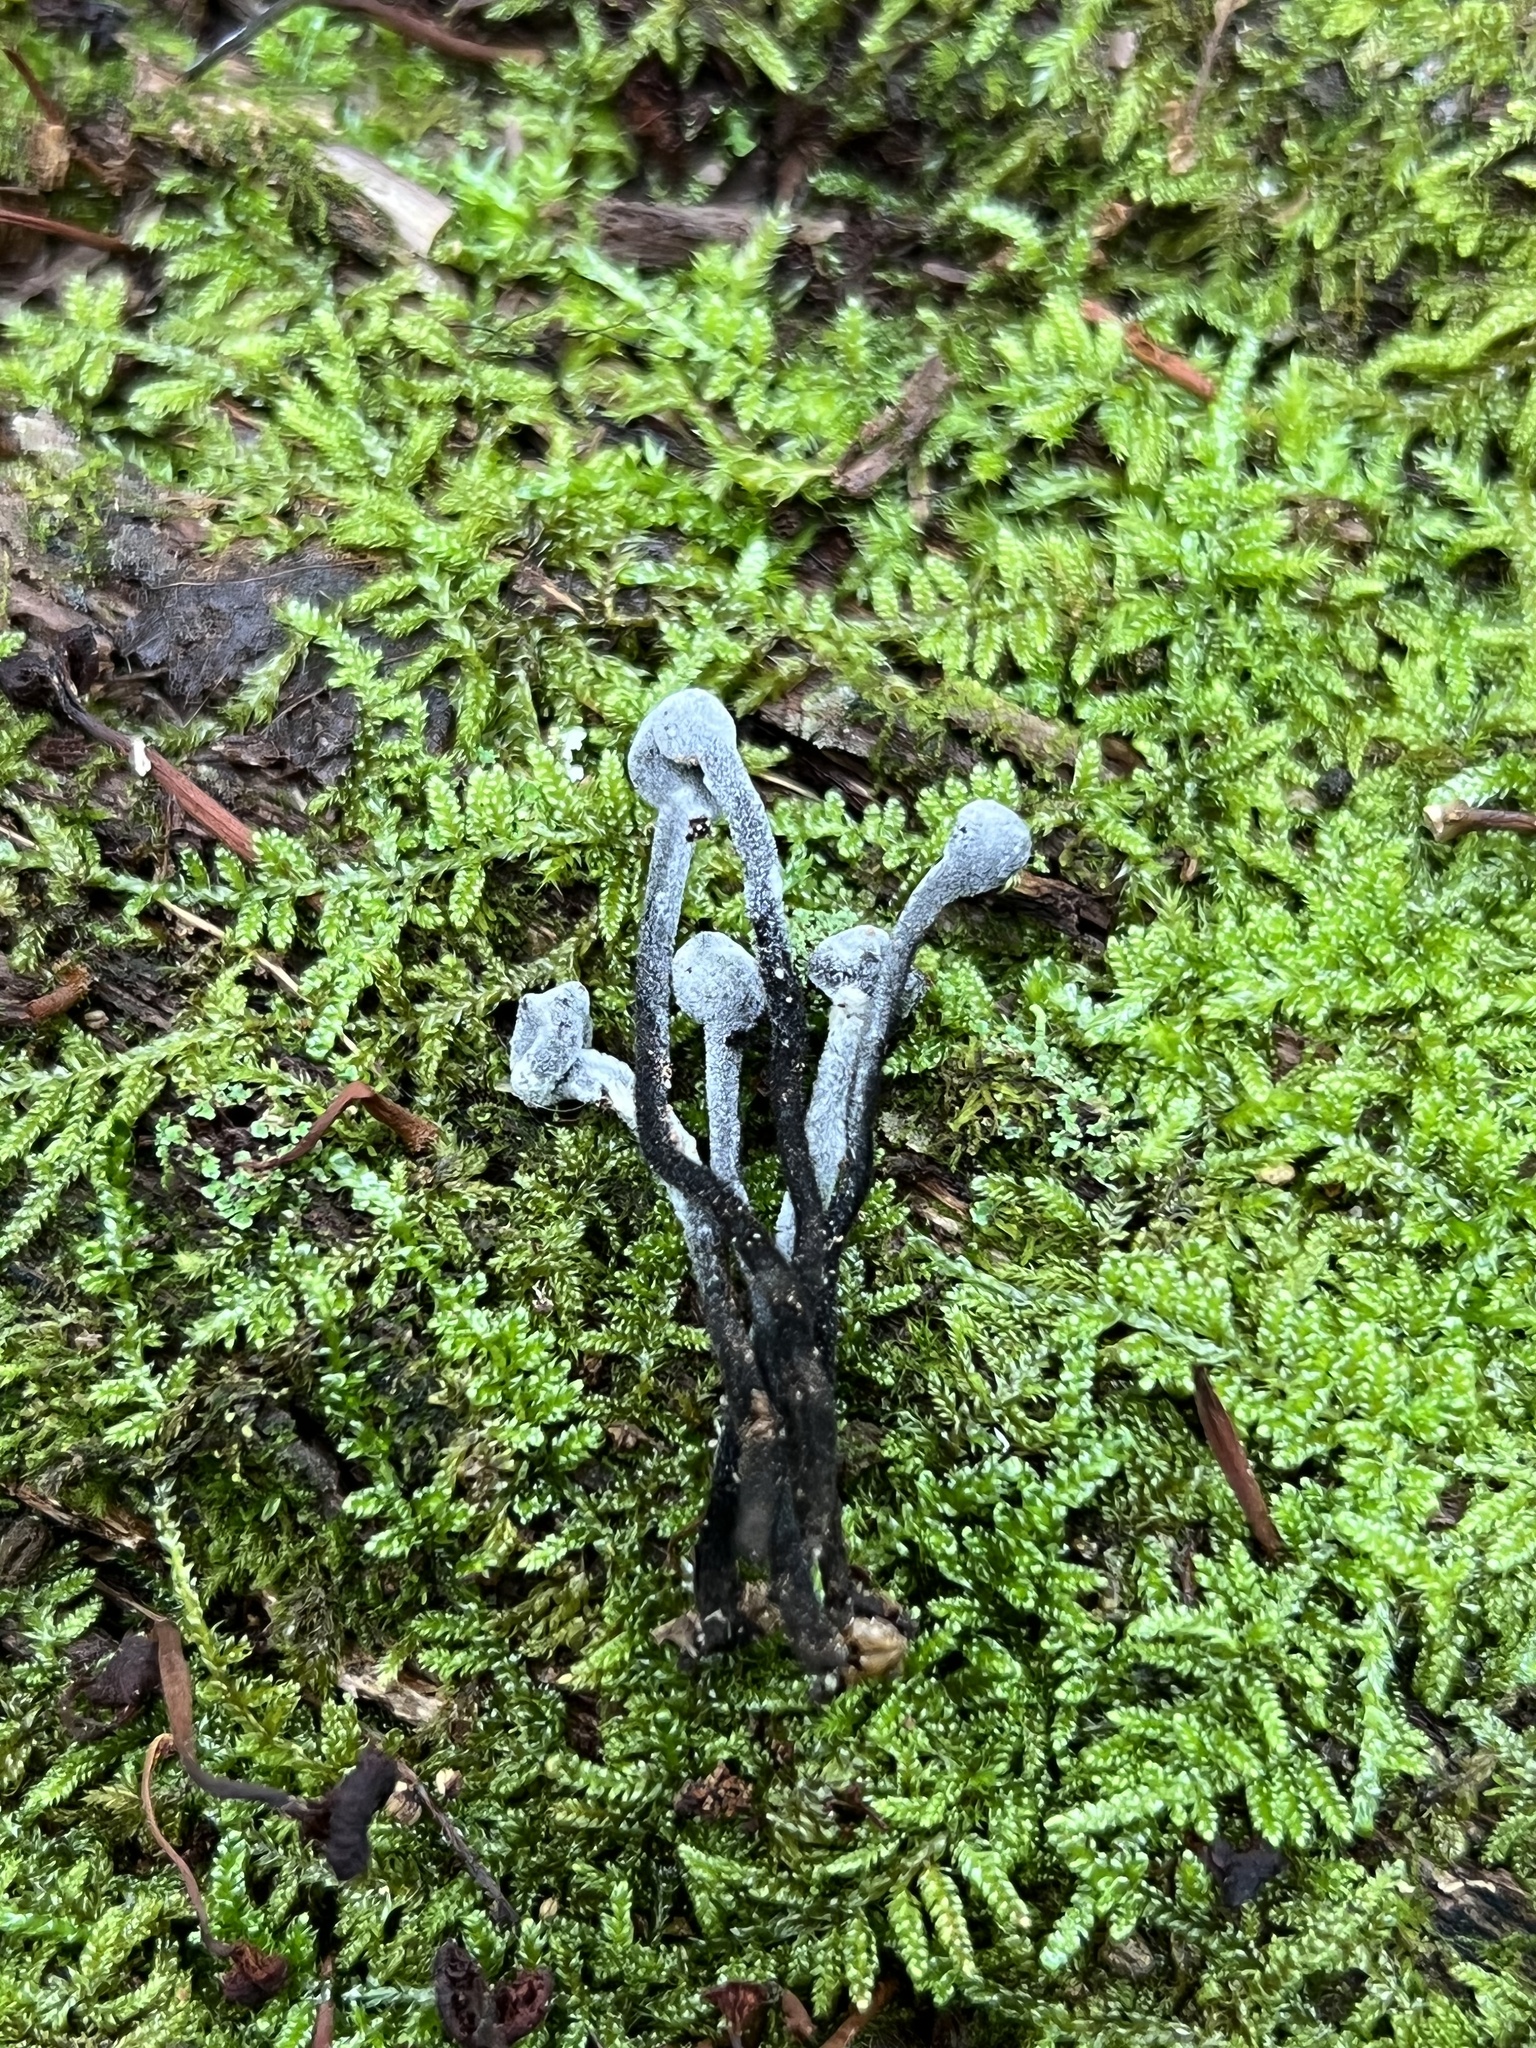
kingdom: Fungi
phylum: Ascomycota
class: Sordariomycetes
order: Hypocreales
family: Hypocreaceae
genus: Hypomyces
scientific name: Hypomyces papulasporae
